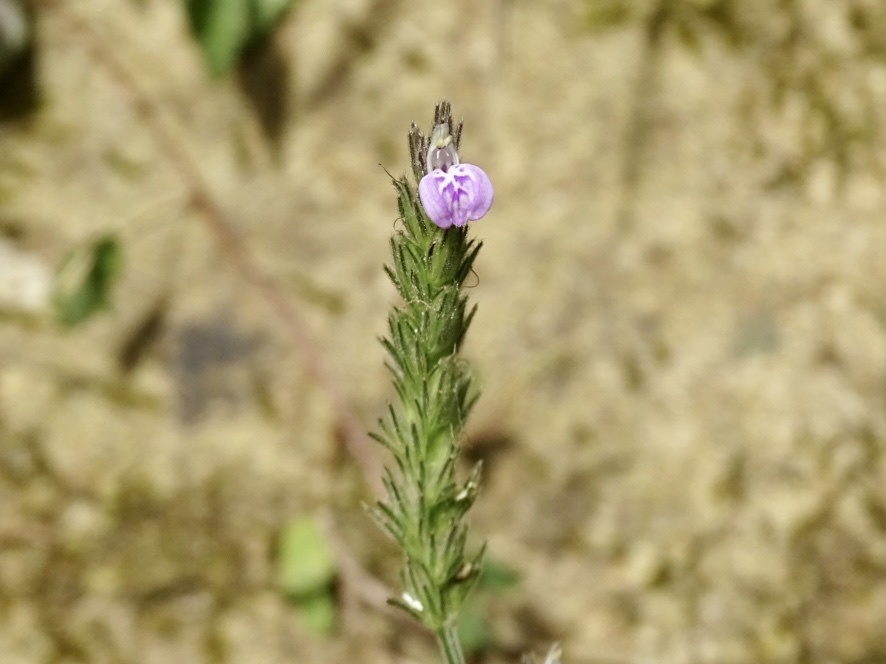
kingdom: Plantae
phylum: Tracheophyta
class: Magnoliopsida
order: Lamiales
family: Acanthaceae
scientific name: Acanthaceae
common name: Acanthaceae
